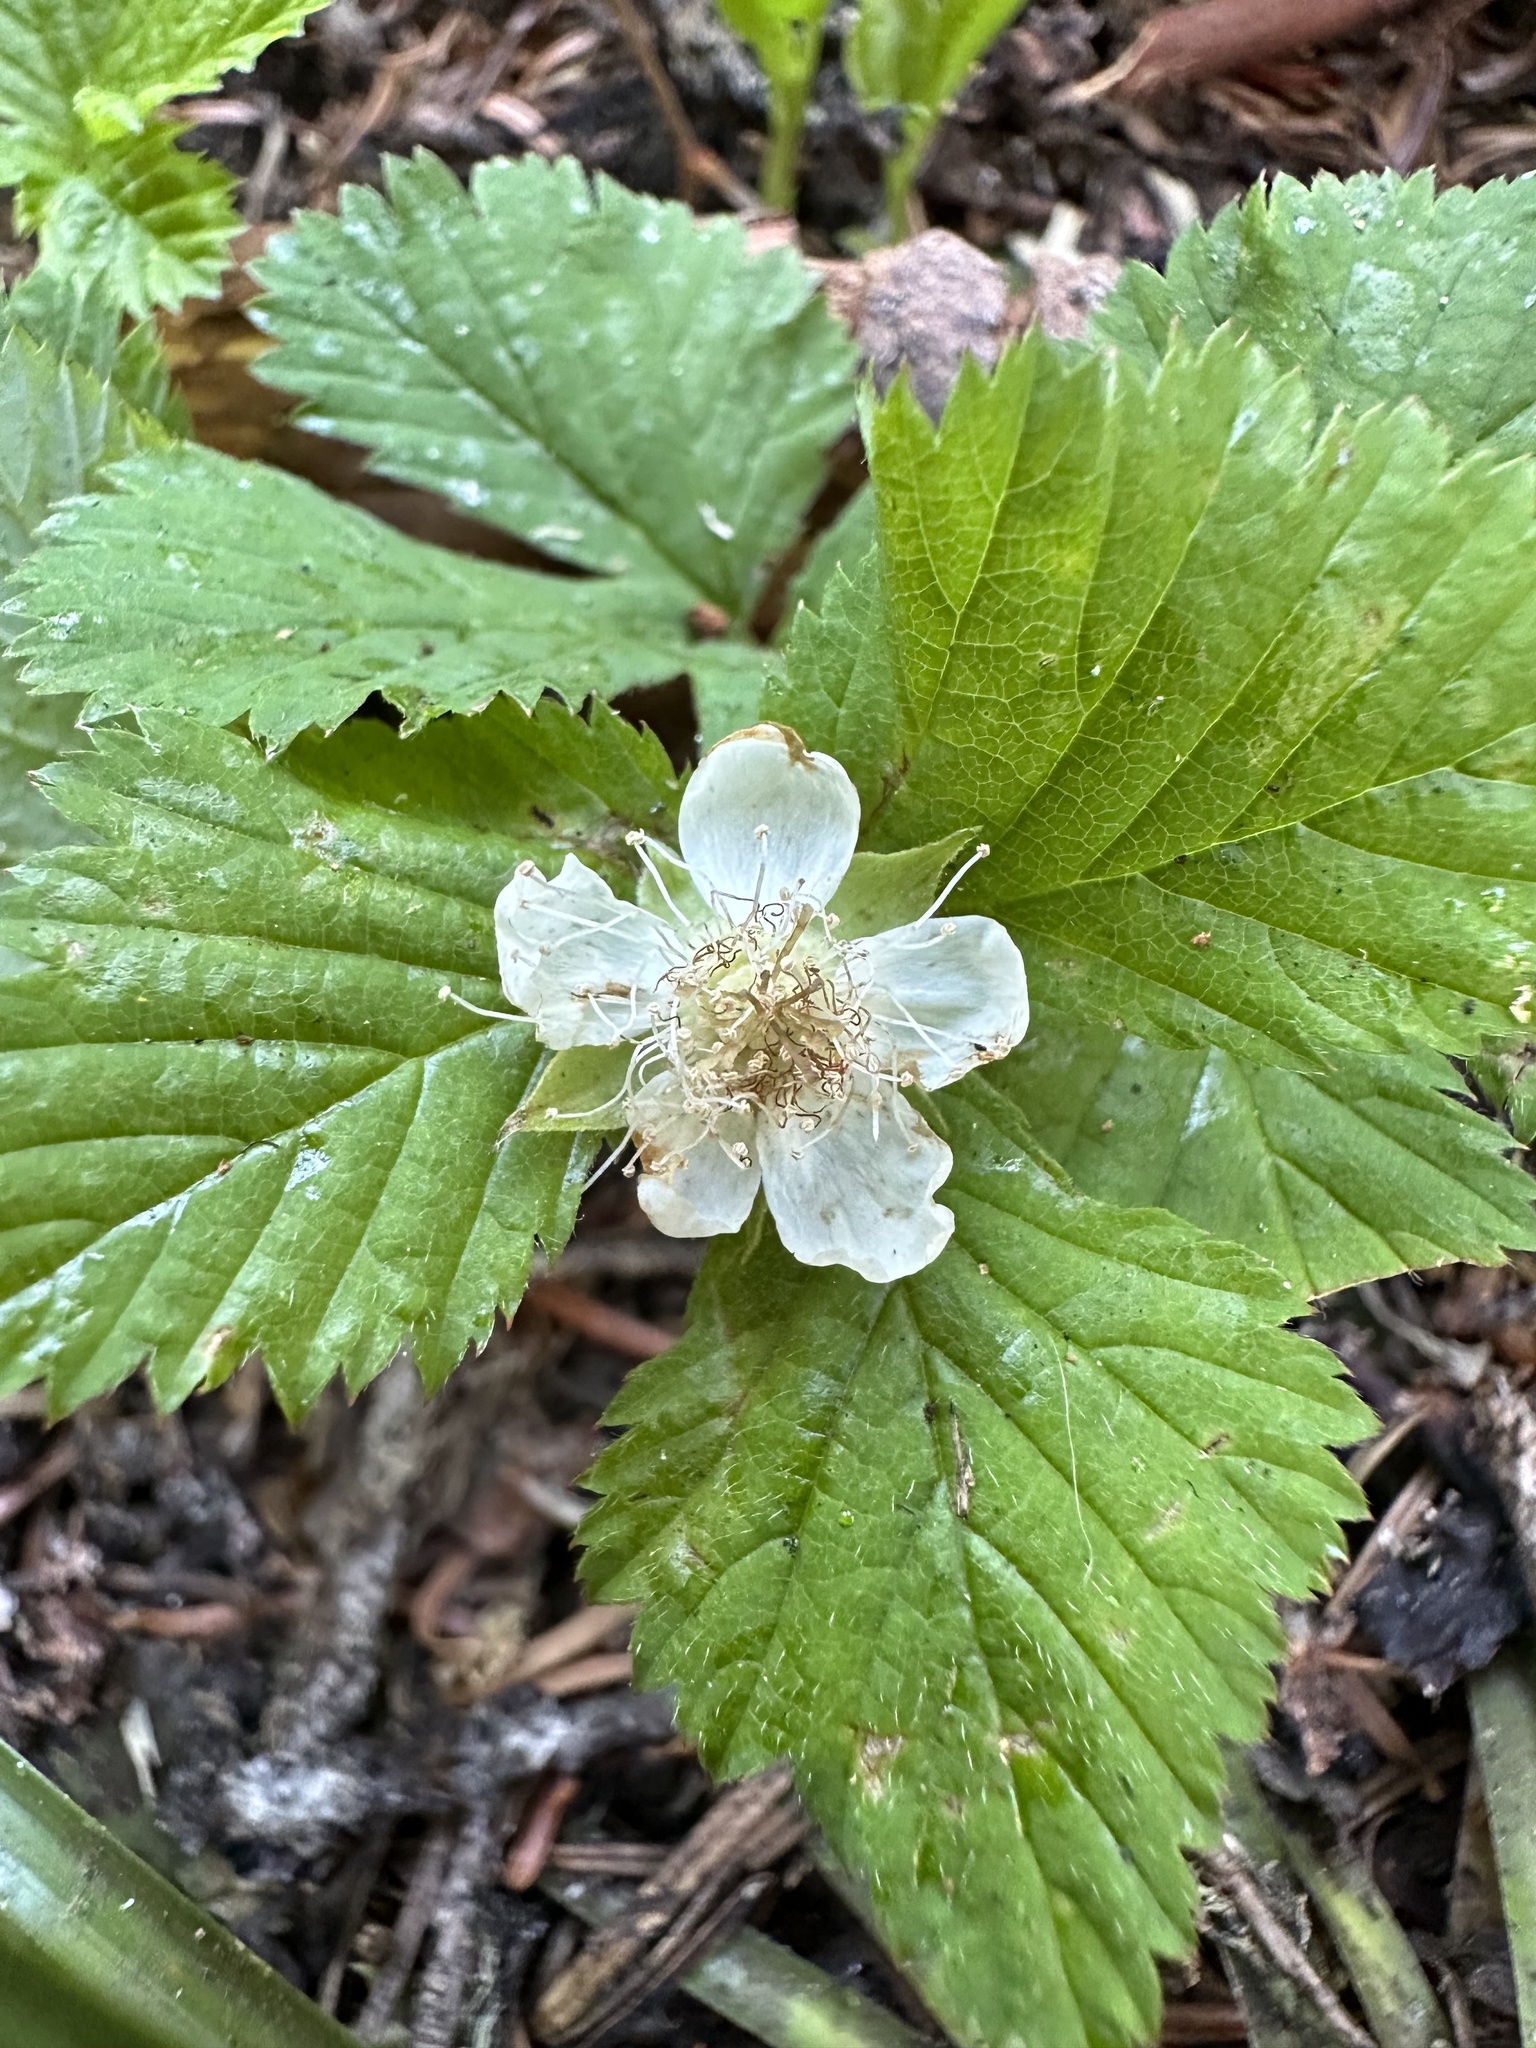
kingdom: Plantae
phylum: Tracheophyta
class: Magnoliopsida
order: Rosales
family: Rosaceae
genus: Rubus
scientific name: Rubus lasiococcus
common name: Dwarf bramble
